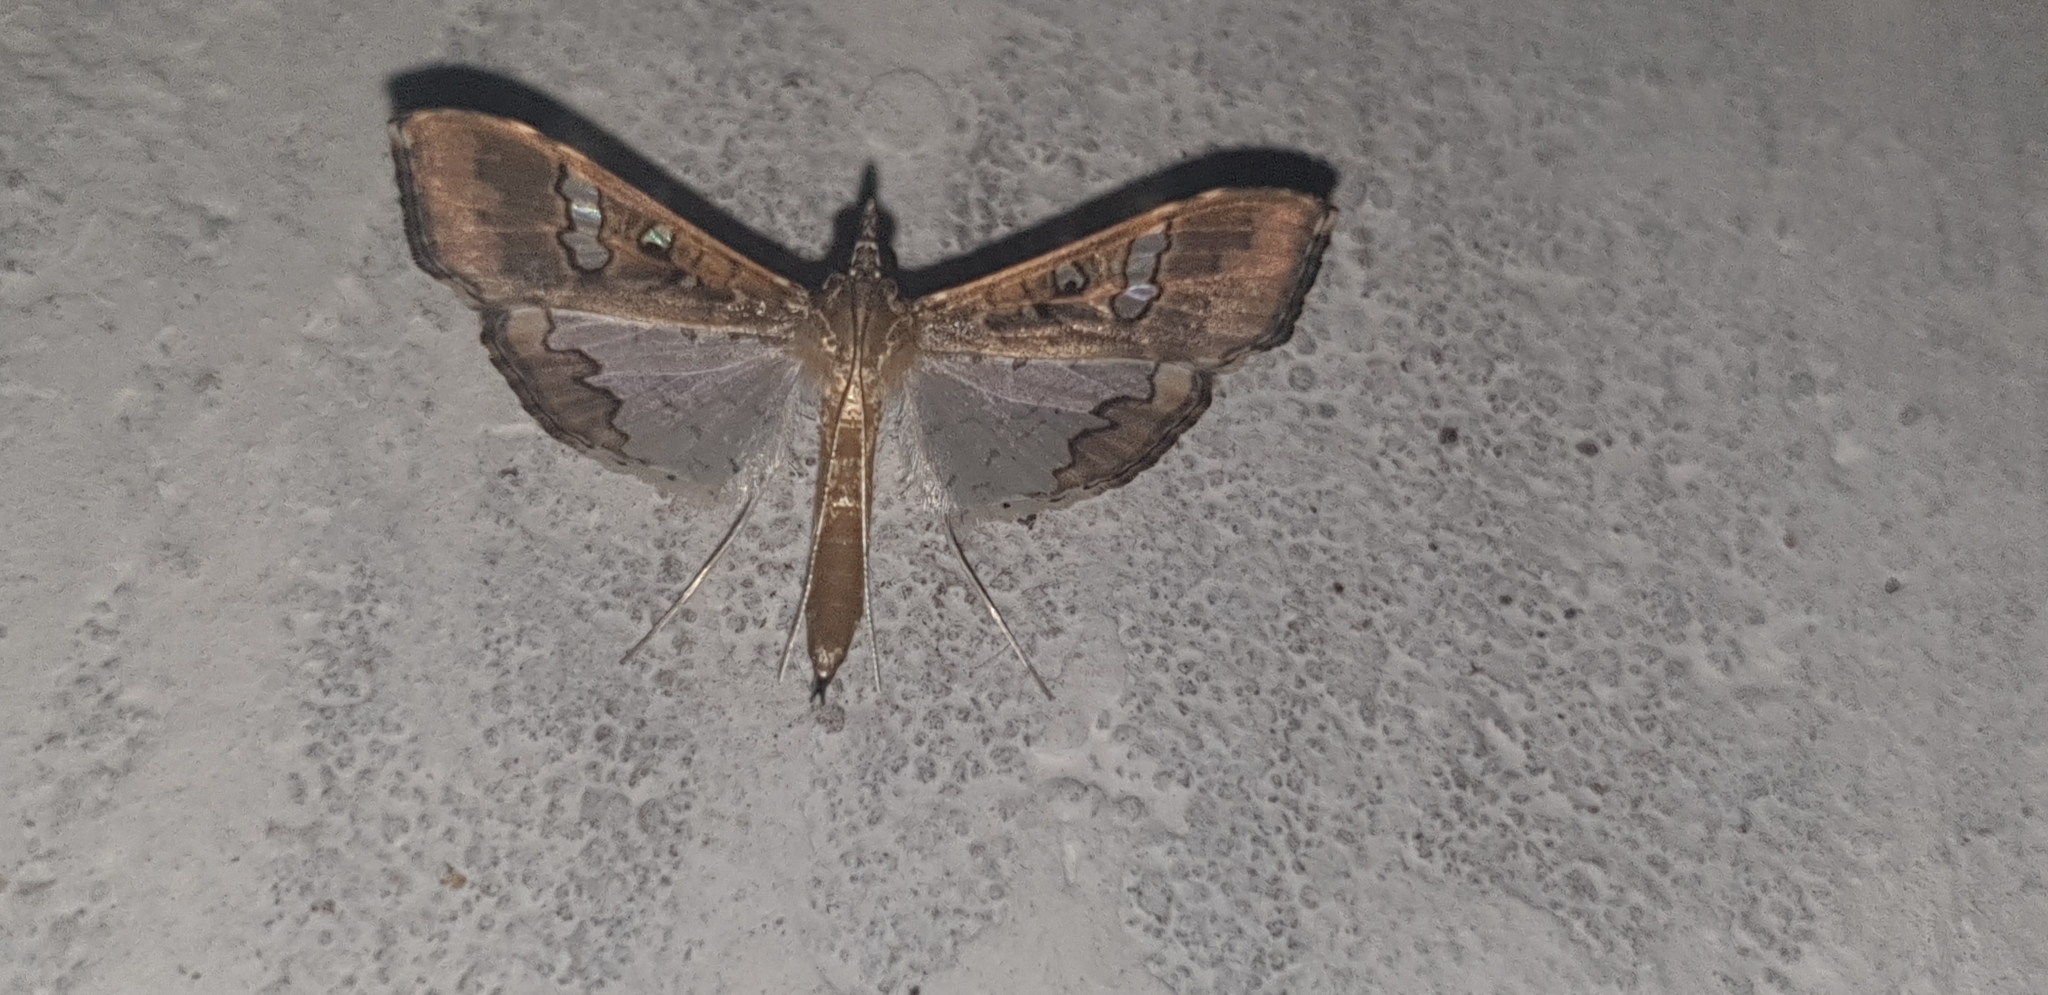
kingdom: Animalia
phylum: Arthropoda
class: Insecta
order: Lepidoptera
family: Crambidae
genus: Maruca
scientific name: Maruca vitrata
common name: Maruca pod borer
